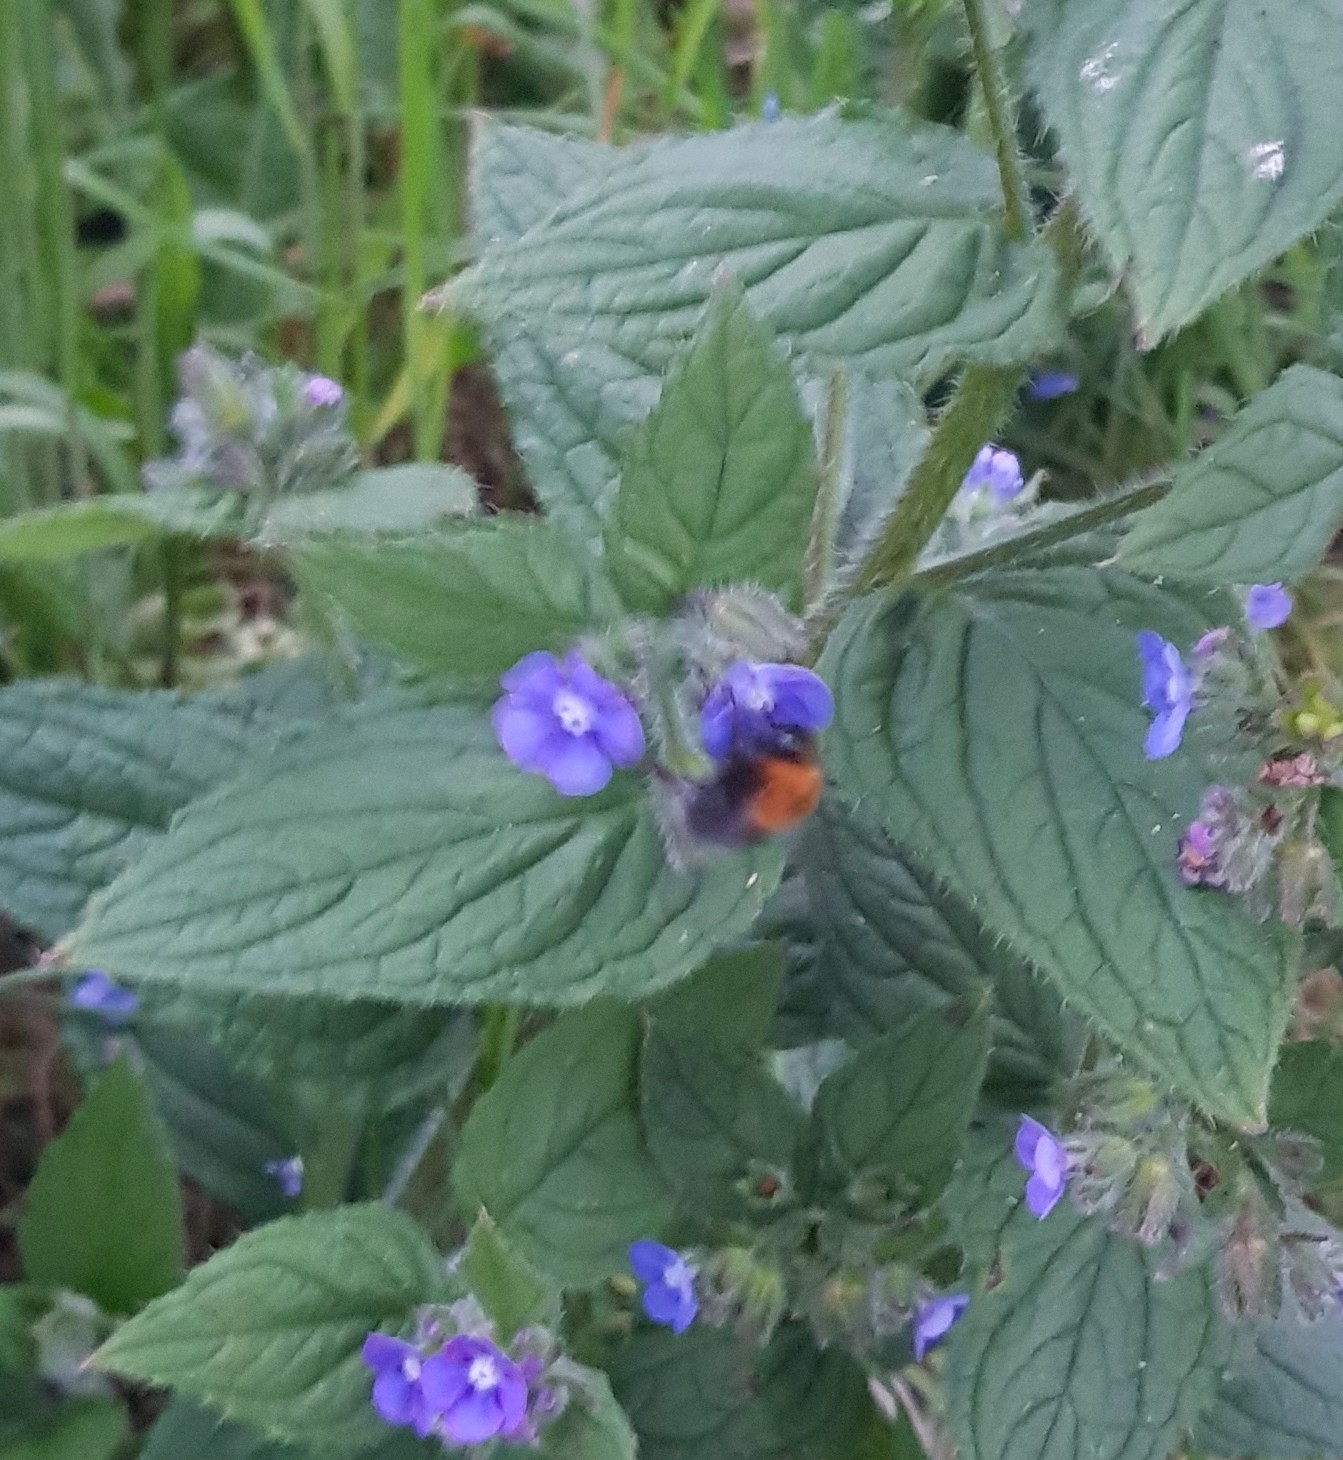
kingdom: Animalia
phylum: Arthropoda
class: Insecta
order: Hymenoptera
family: Apidae
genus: Bombus
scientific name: Bombus hypnorum
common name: New garden bumblebee
